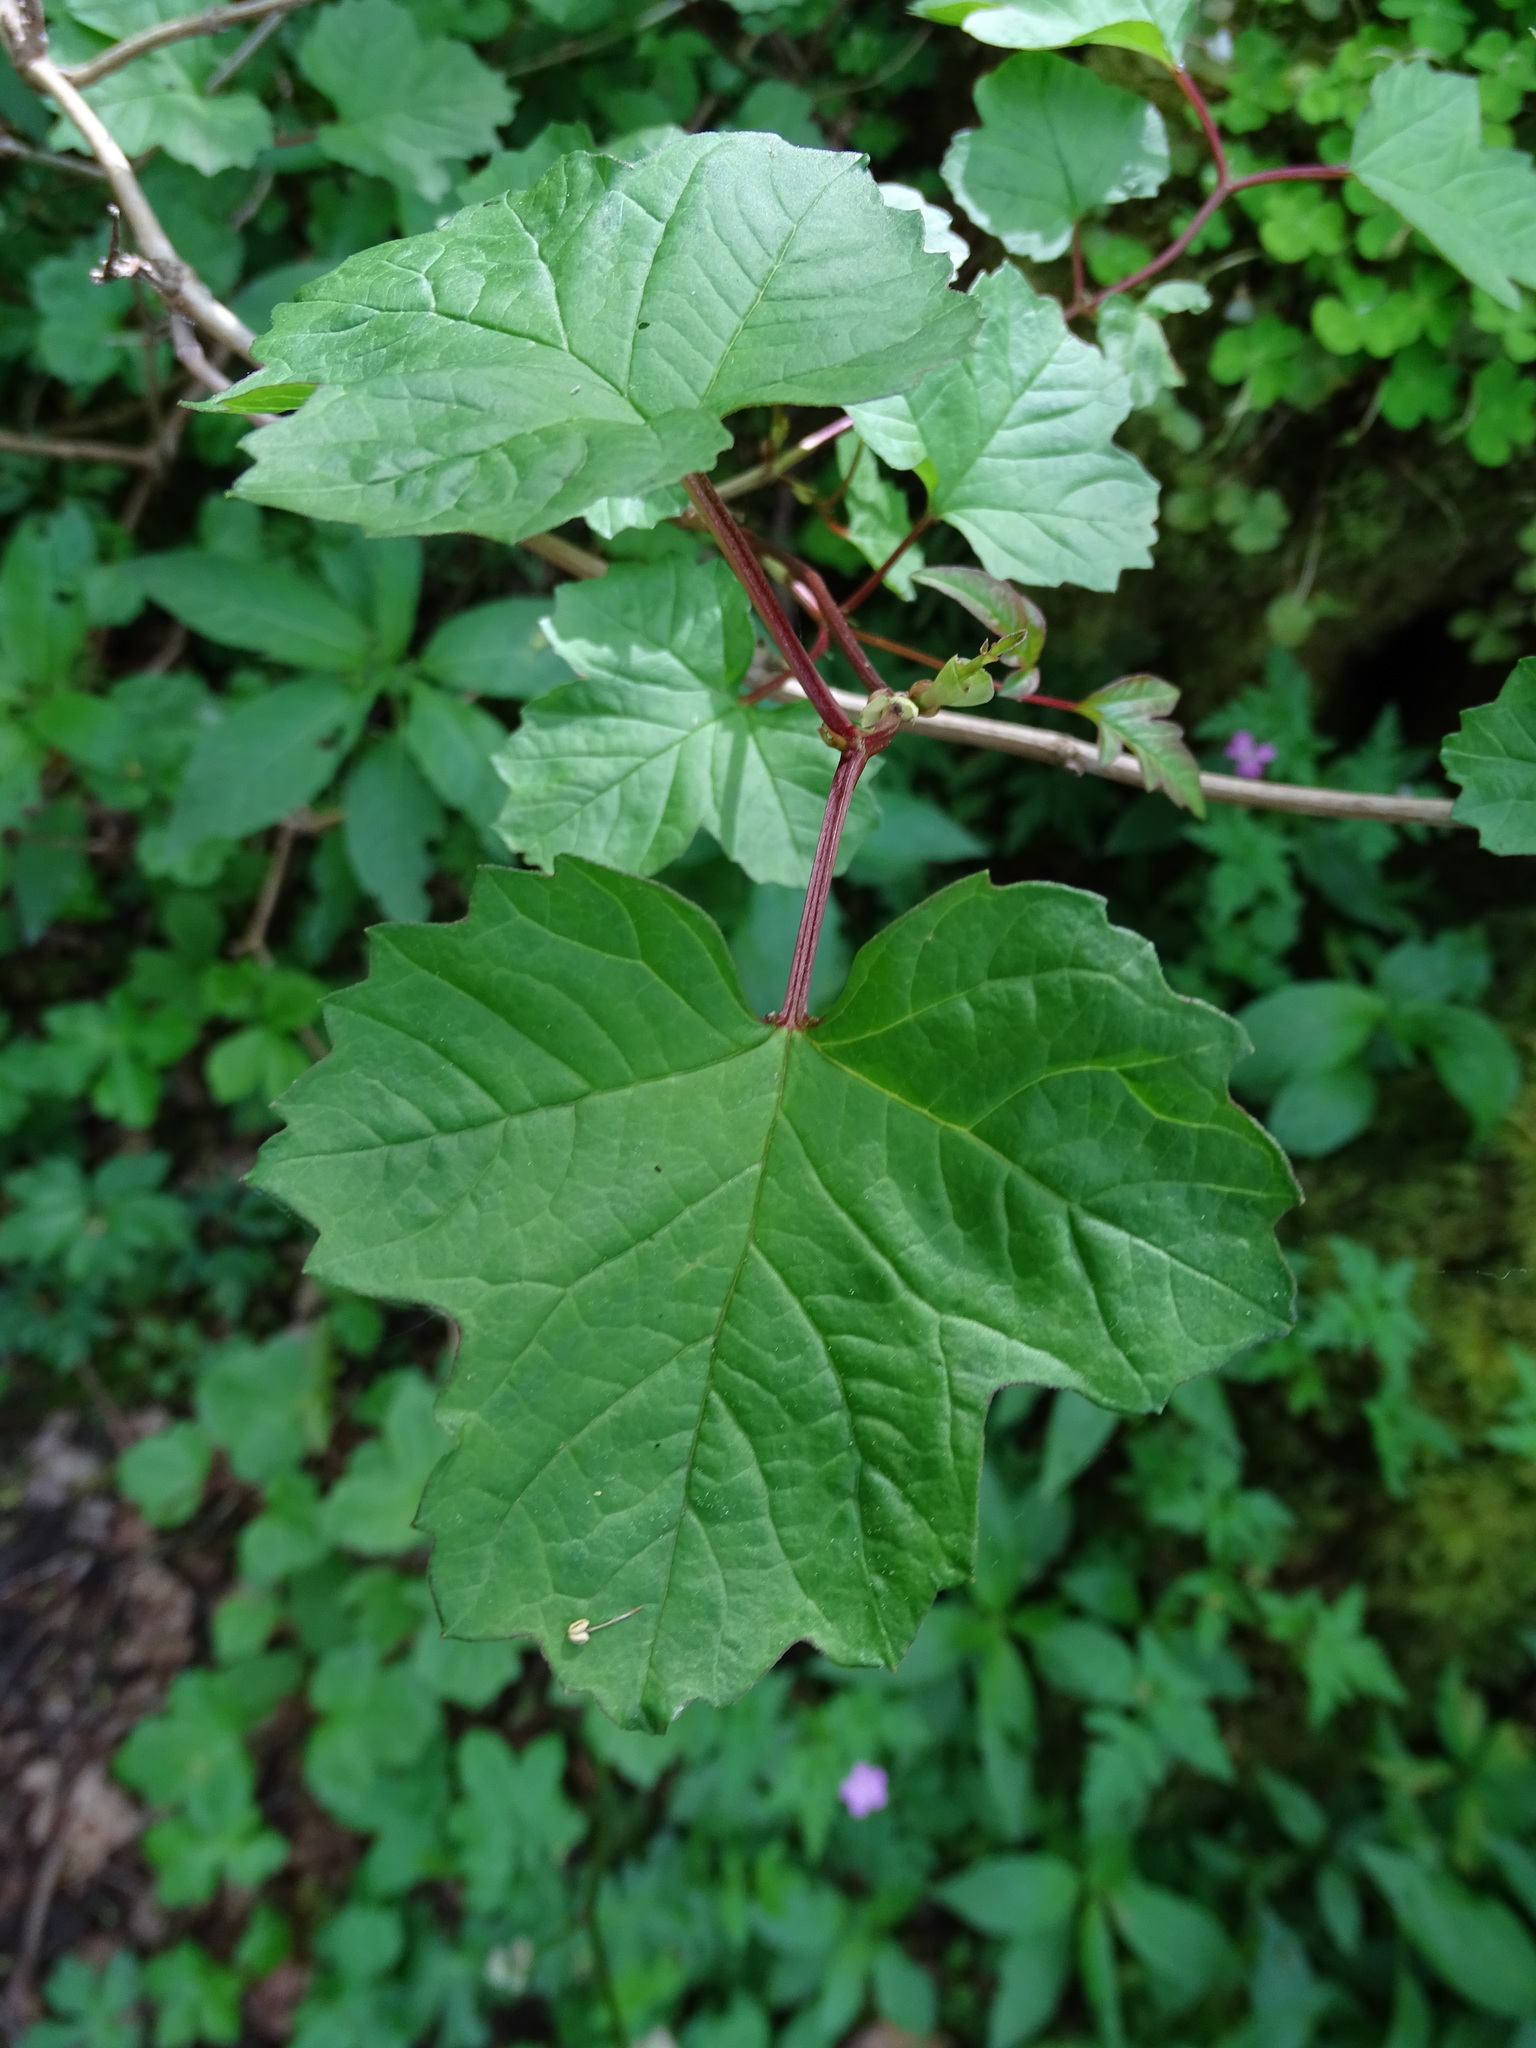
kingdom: Plantae
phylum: Tracheophyta
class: Magnoliopsida
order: Sapindales
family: Sapindaceae
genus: Acer
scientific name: Acer pseudoplatanus
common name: Sycamore
